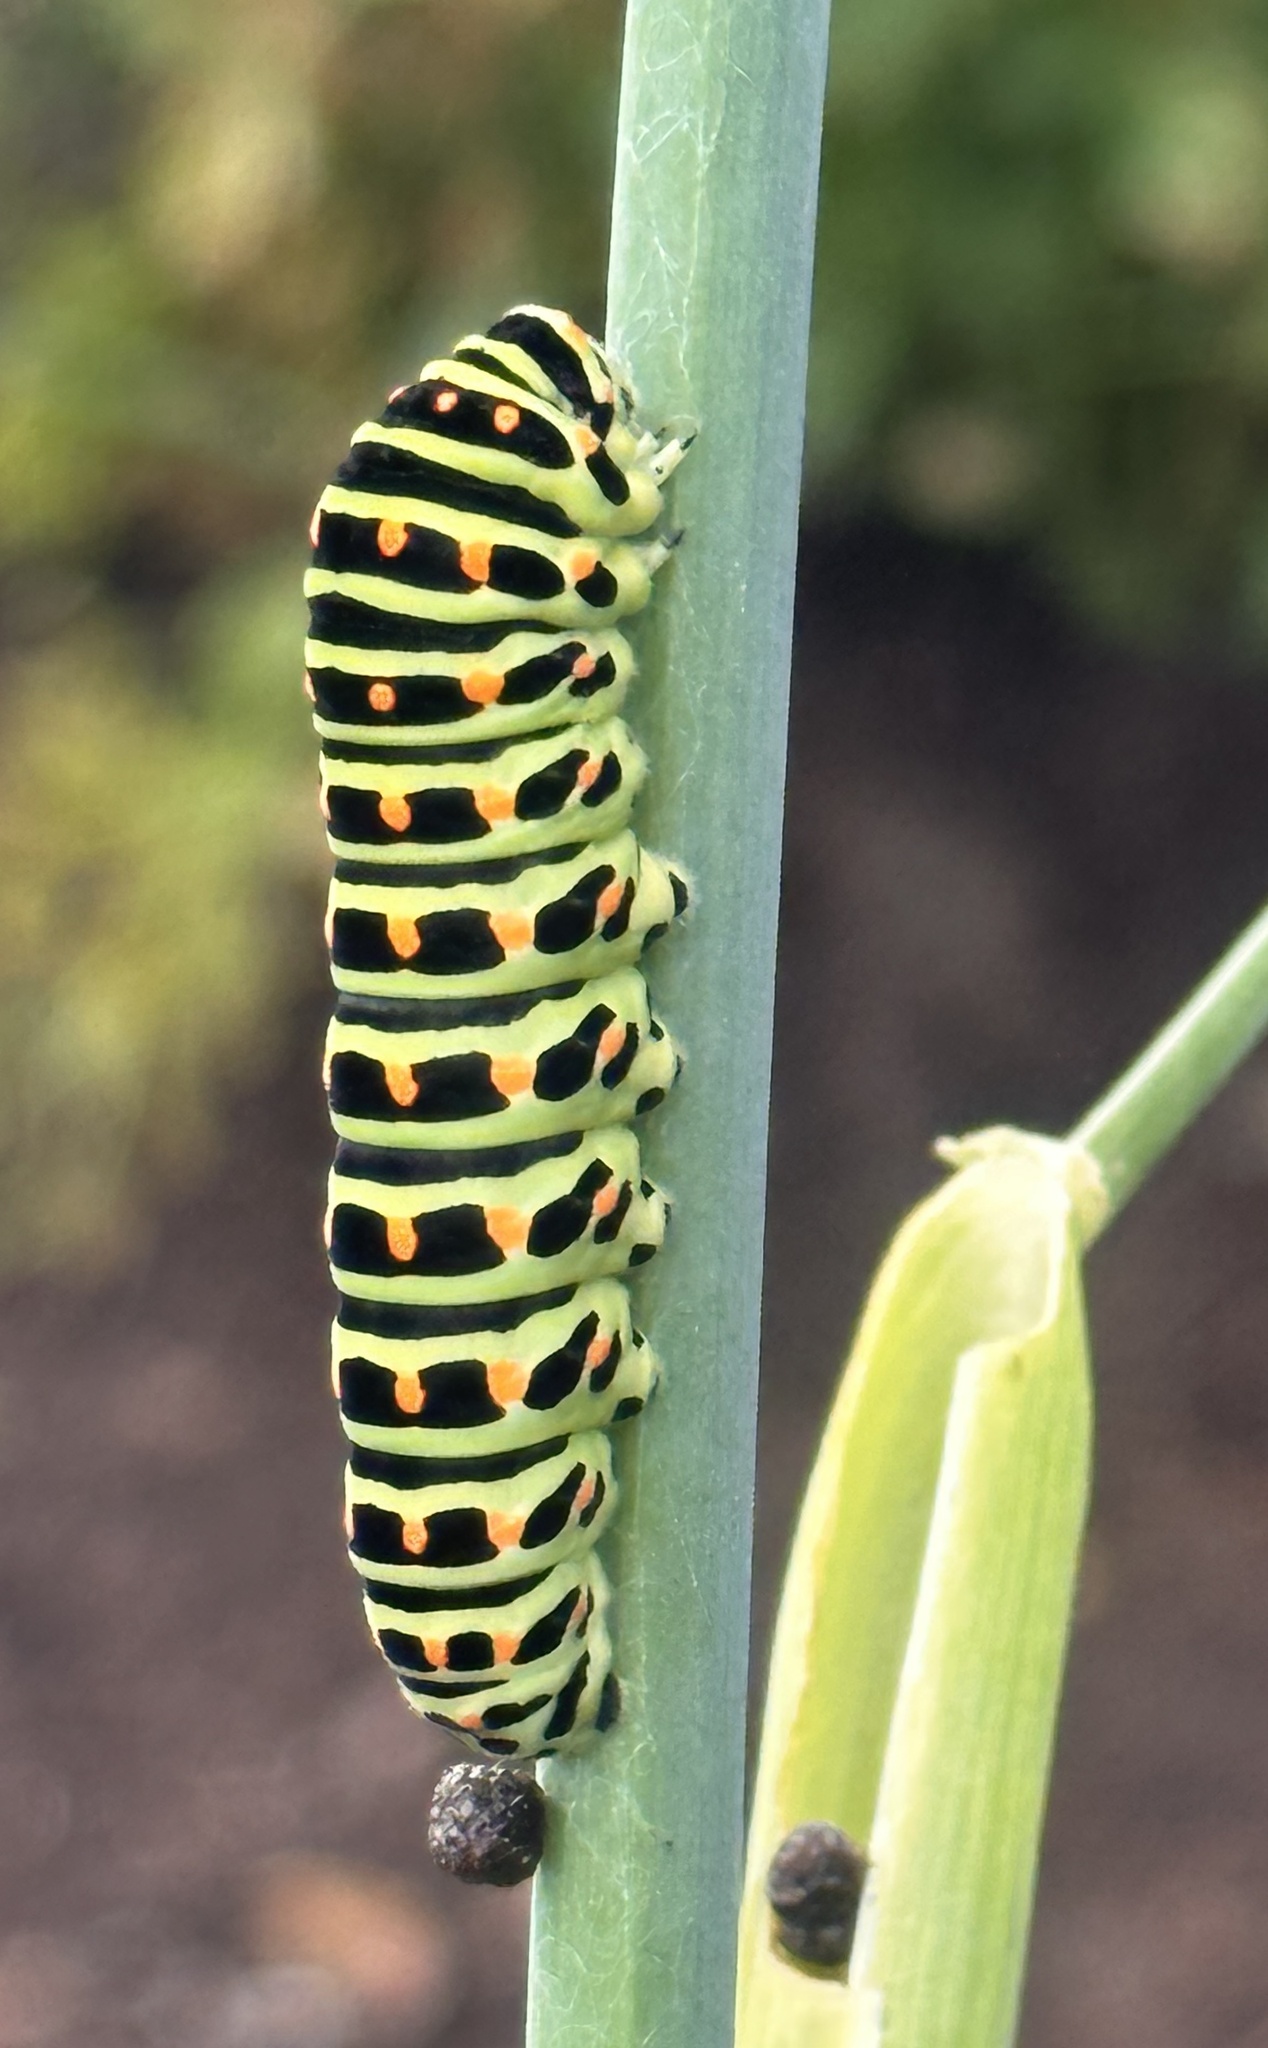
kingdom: Animalia
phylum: Arthropoda
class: Insecta
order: Lepidoptera
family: Papilionidae
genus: Papilio
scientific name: Papilio machaon
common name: Swallowtail
